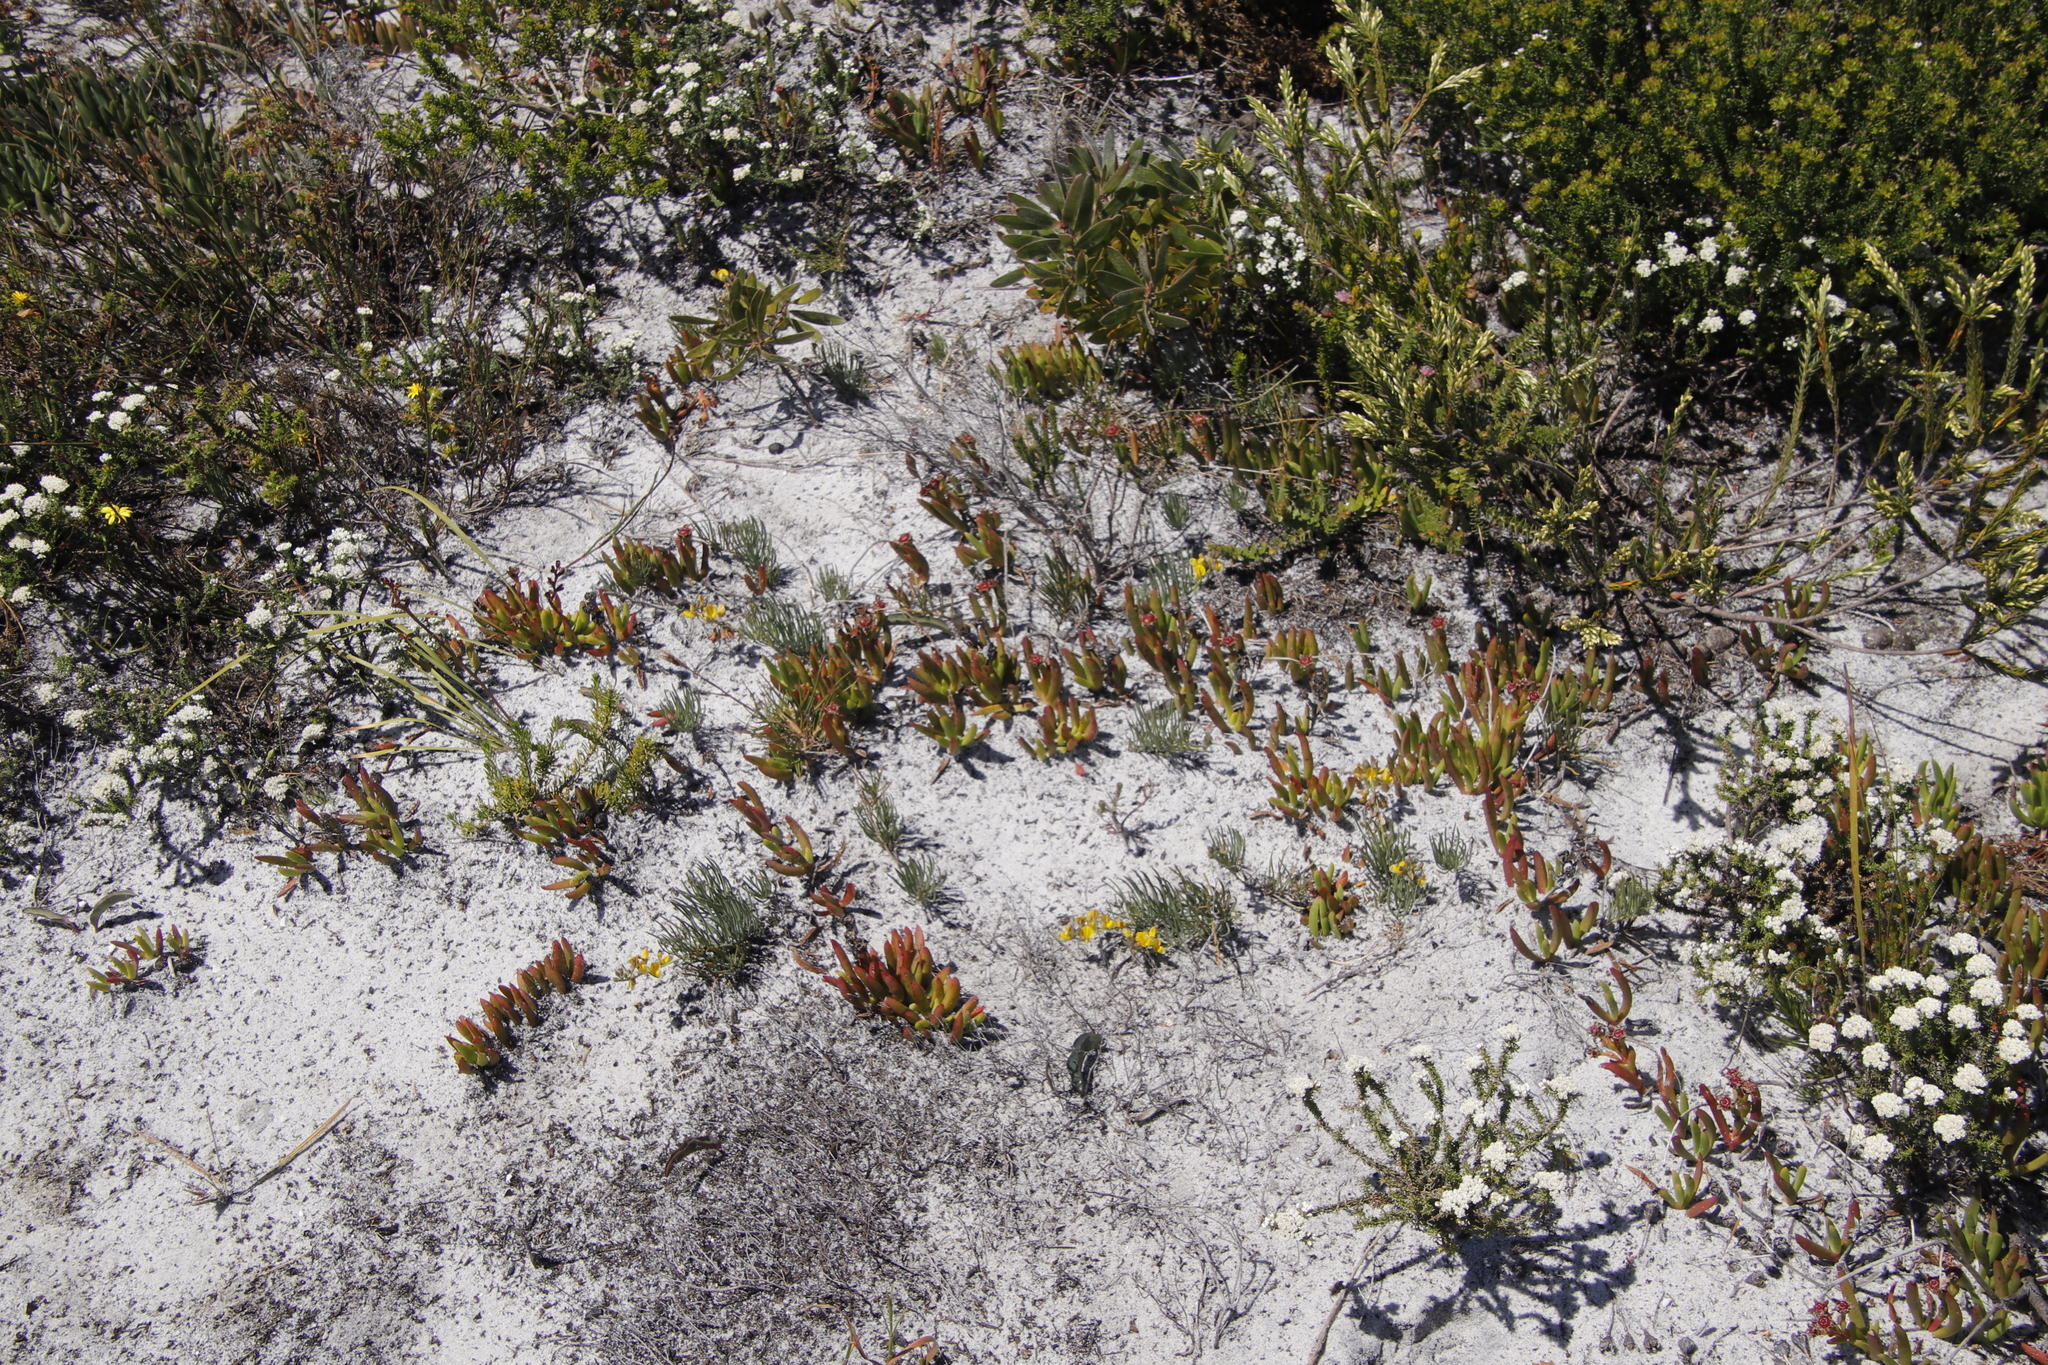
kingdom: Plantae
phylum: Tracheophyta
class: Magnoliopsida
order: Fabales
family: Fabaceae
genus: Lebeckia
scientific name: Lebeckia meyeriana
